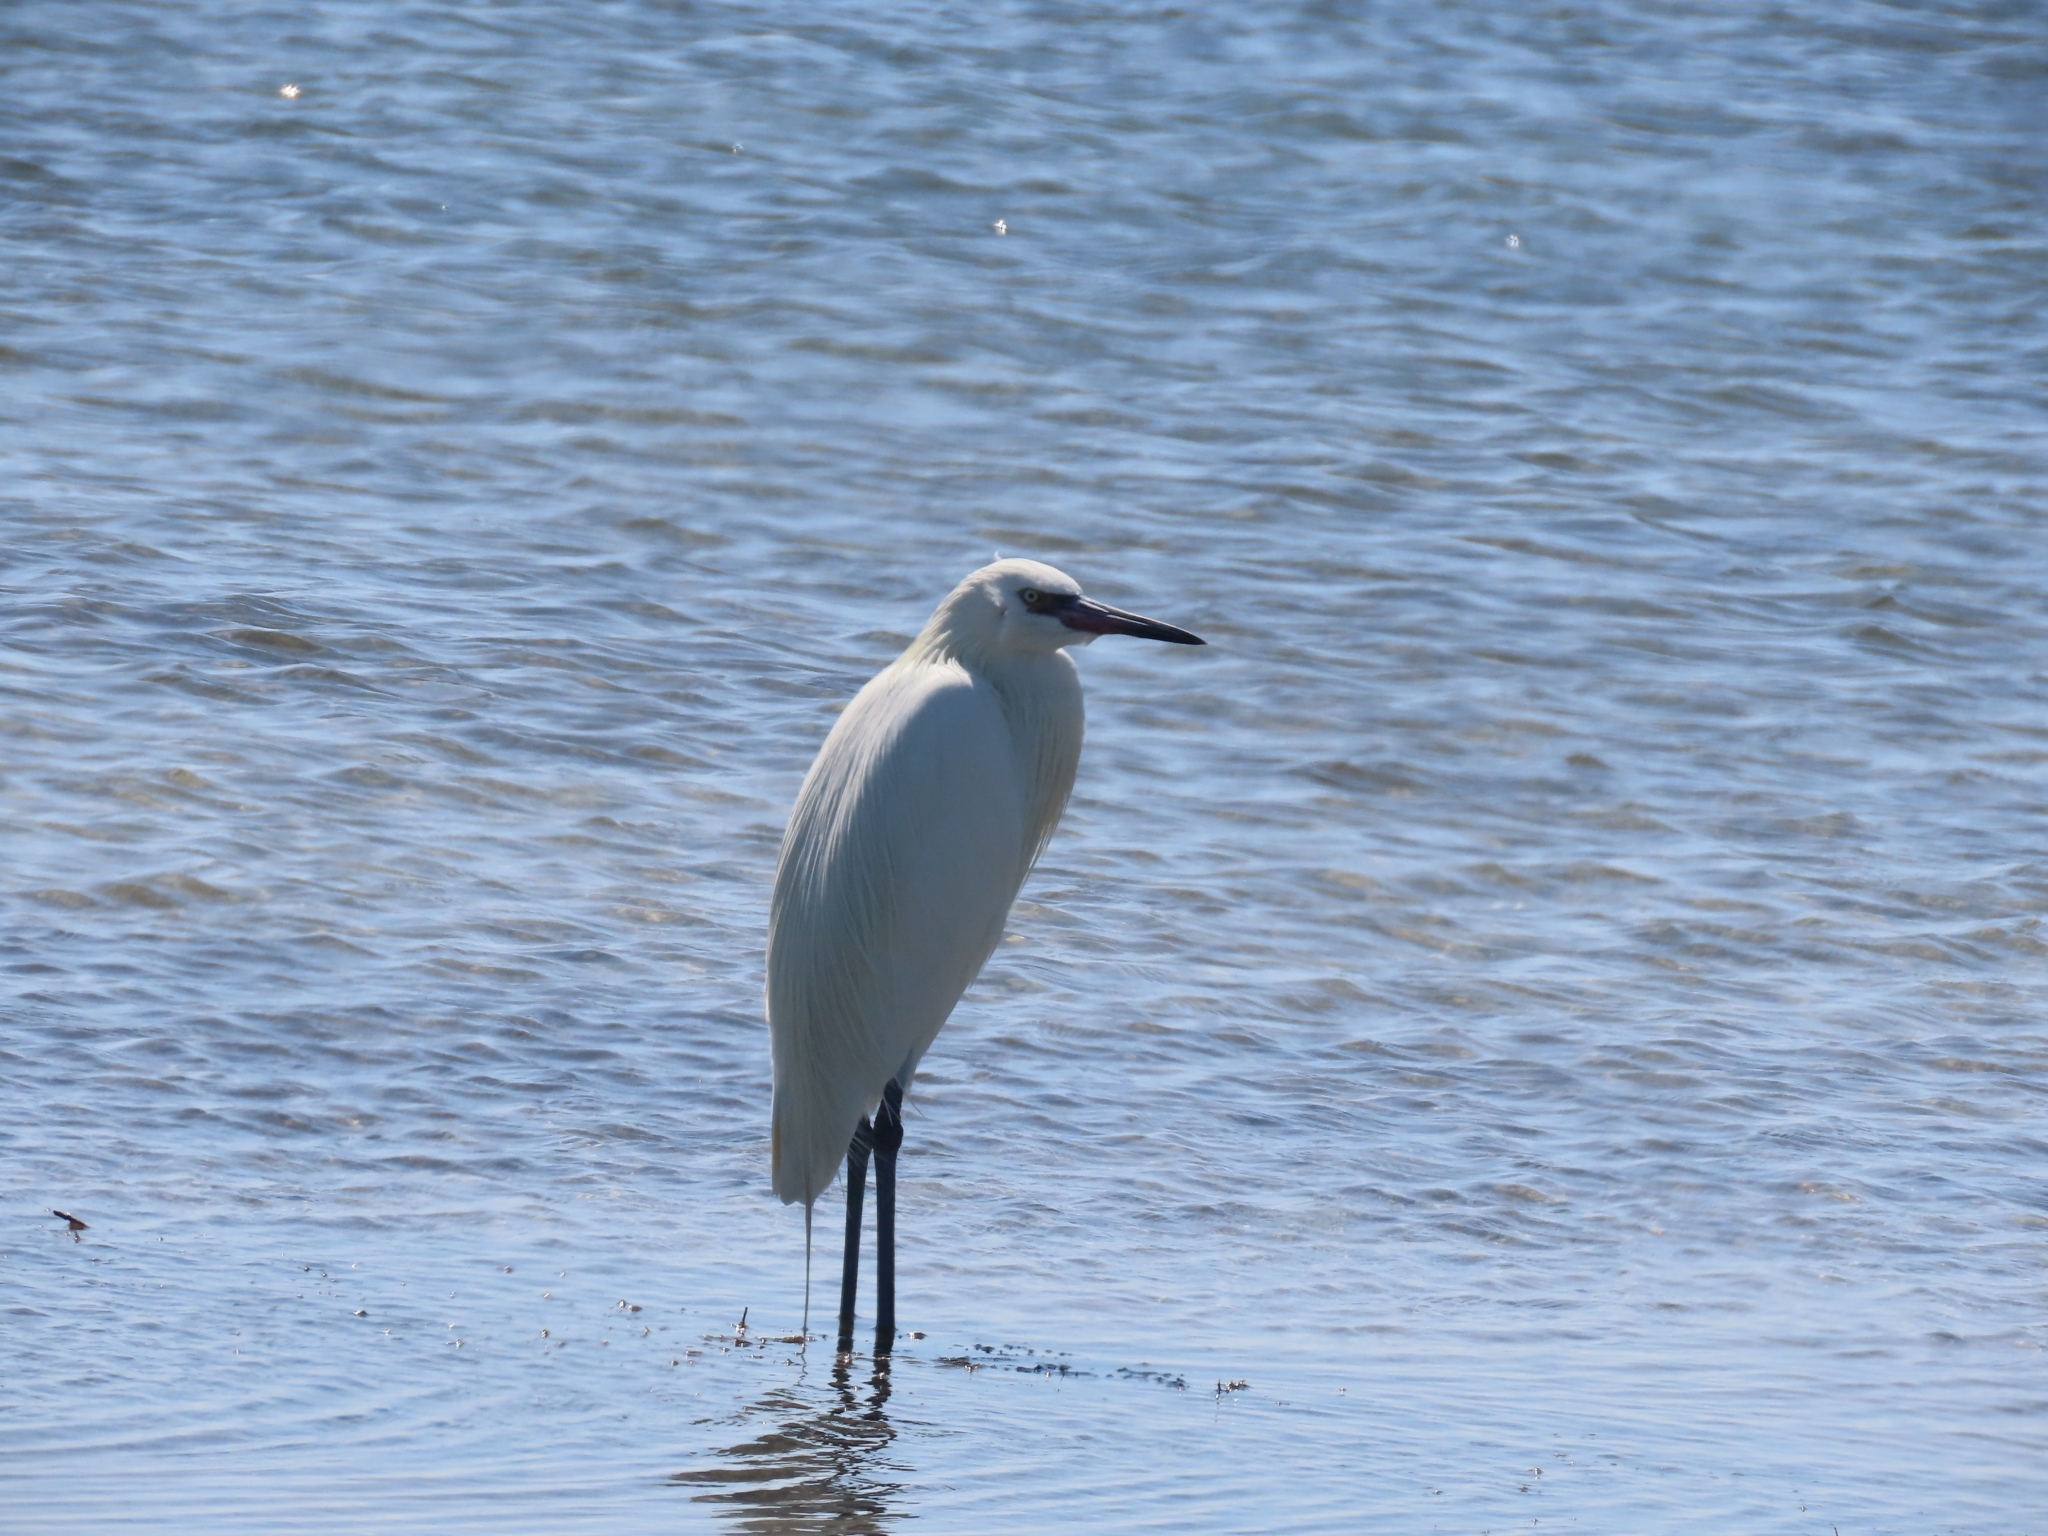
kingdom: Animalia
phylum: Chordata
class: Aves
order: Pelecaniformes
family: Ardeidae
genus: Ardea
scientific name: Ardea alba
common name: Great egret
